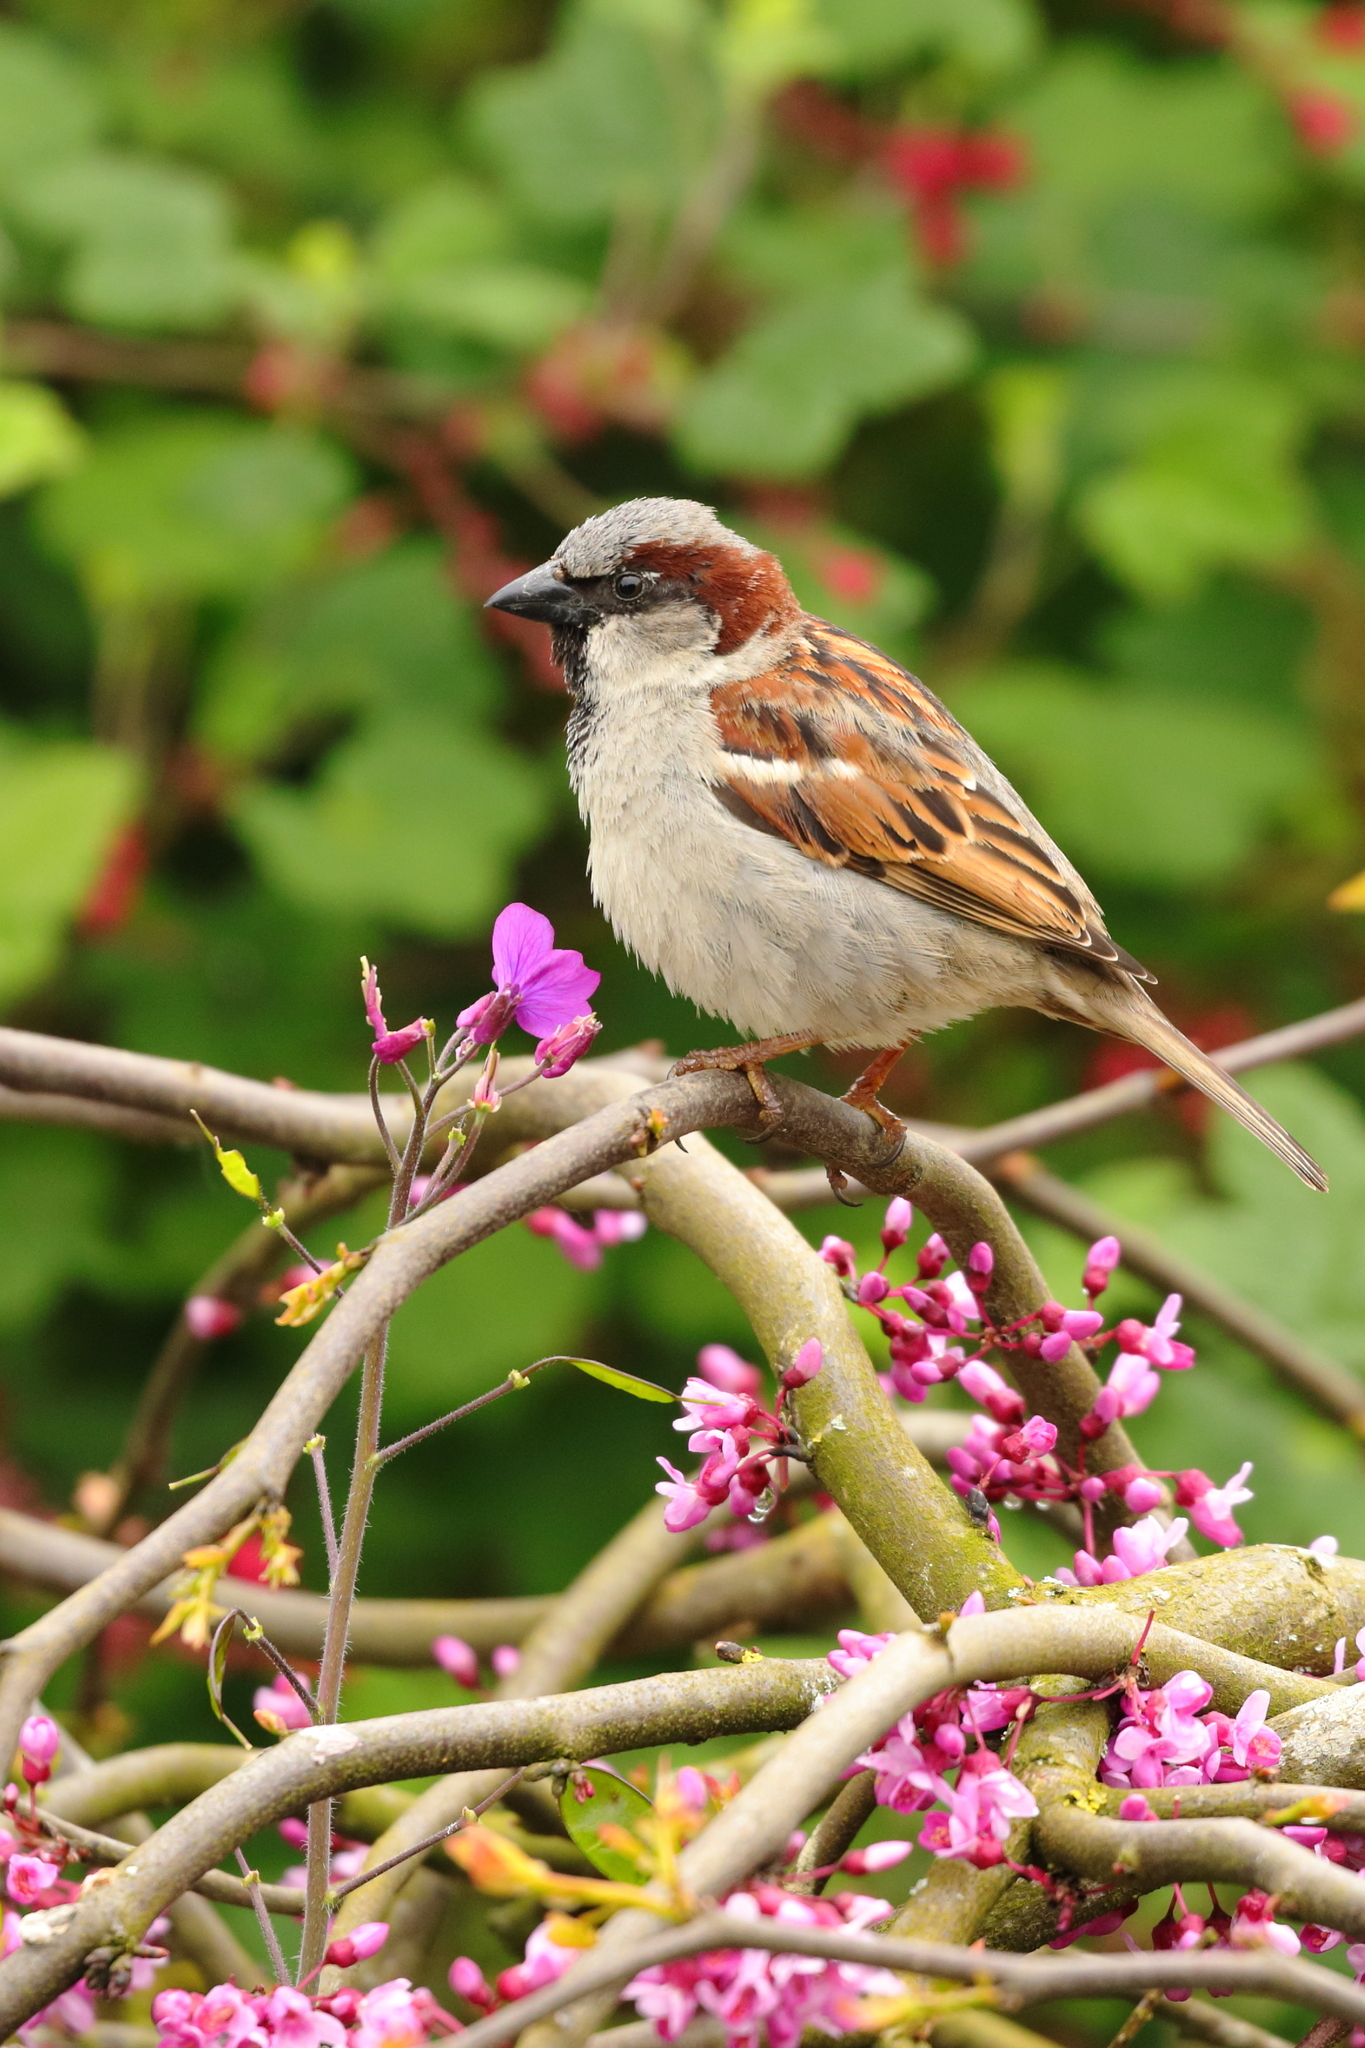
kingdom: Animalia
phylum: Chordata
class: Aves
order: Passeriformes
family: Passeridae
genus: Passer
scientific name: Passer domesticus
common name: House sparrow
